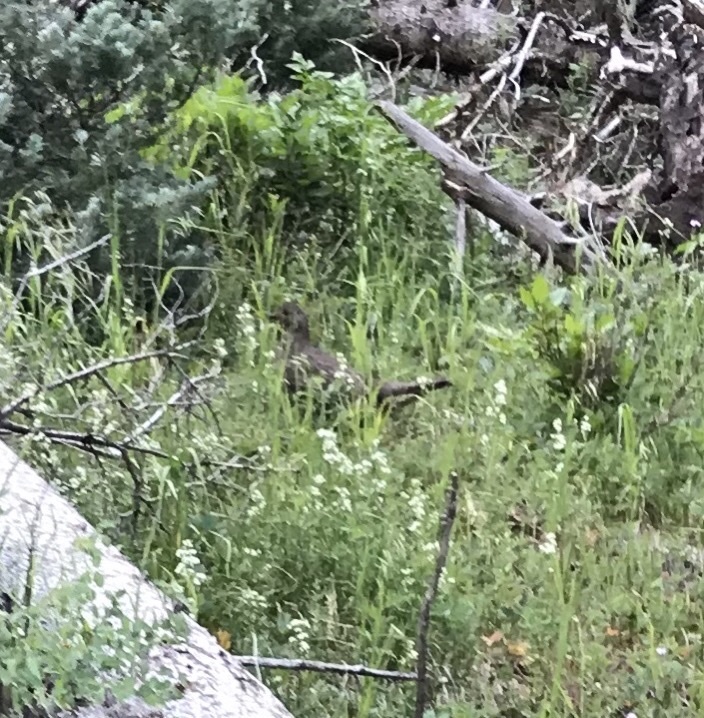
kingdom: Animalia
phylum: Chordata
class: Aves
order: Galliformes
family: Phasianidae
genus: Dendragapus
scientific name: Dendragapus obscurus
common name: Dusky grouse
